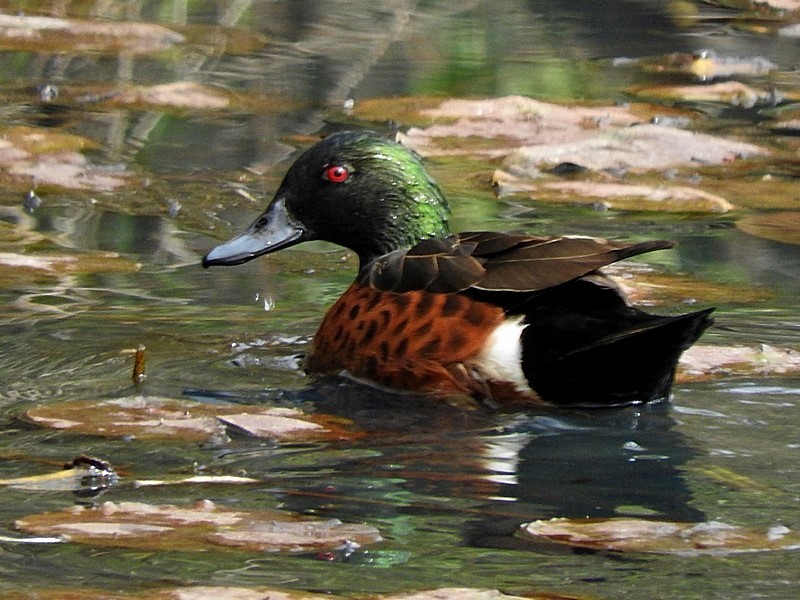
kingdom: Animalia
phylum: Chordata
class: Aves
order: Anseriformes
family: Anatidae
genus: Anas
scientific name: Anas castanea
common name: Chestnut teal
